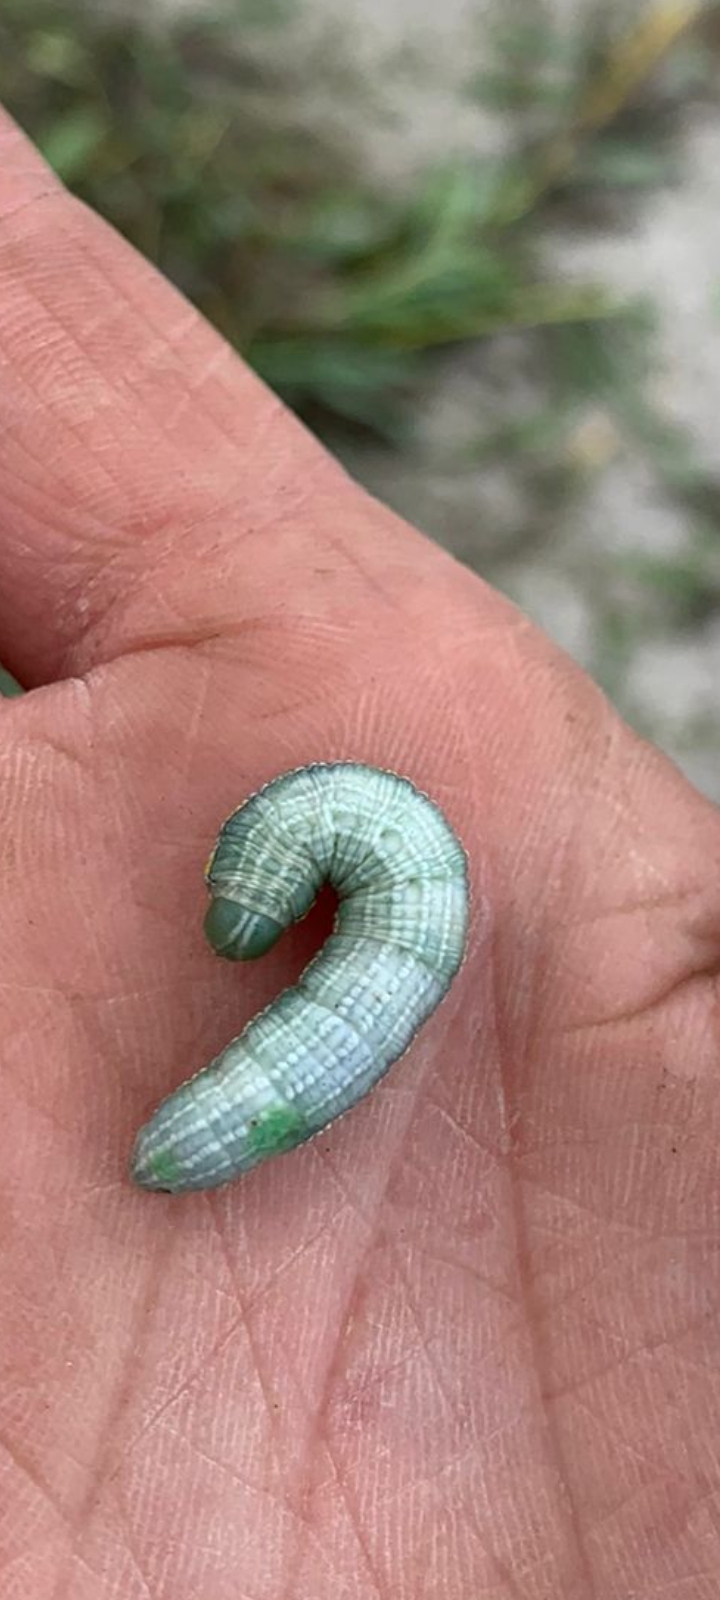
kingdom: Animalia
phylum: Arthropoda
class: Insecta
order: Lepidoptera
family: Notodontidae
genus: Pterostoma
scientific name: Pterostoma palpina
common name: Pale prominent
